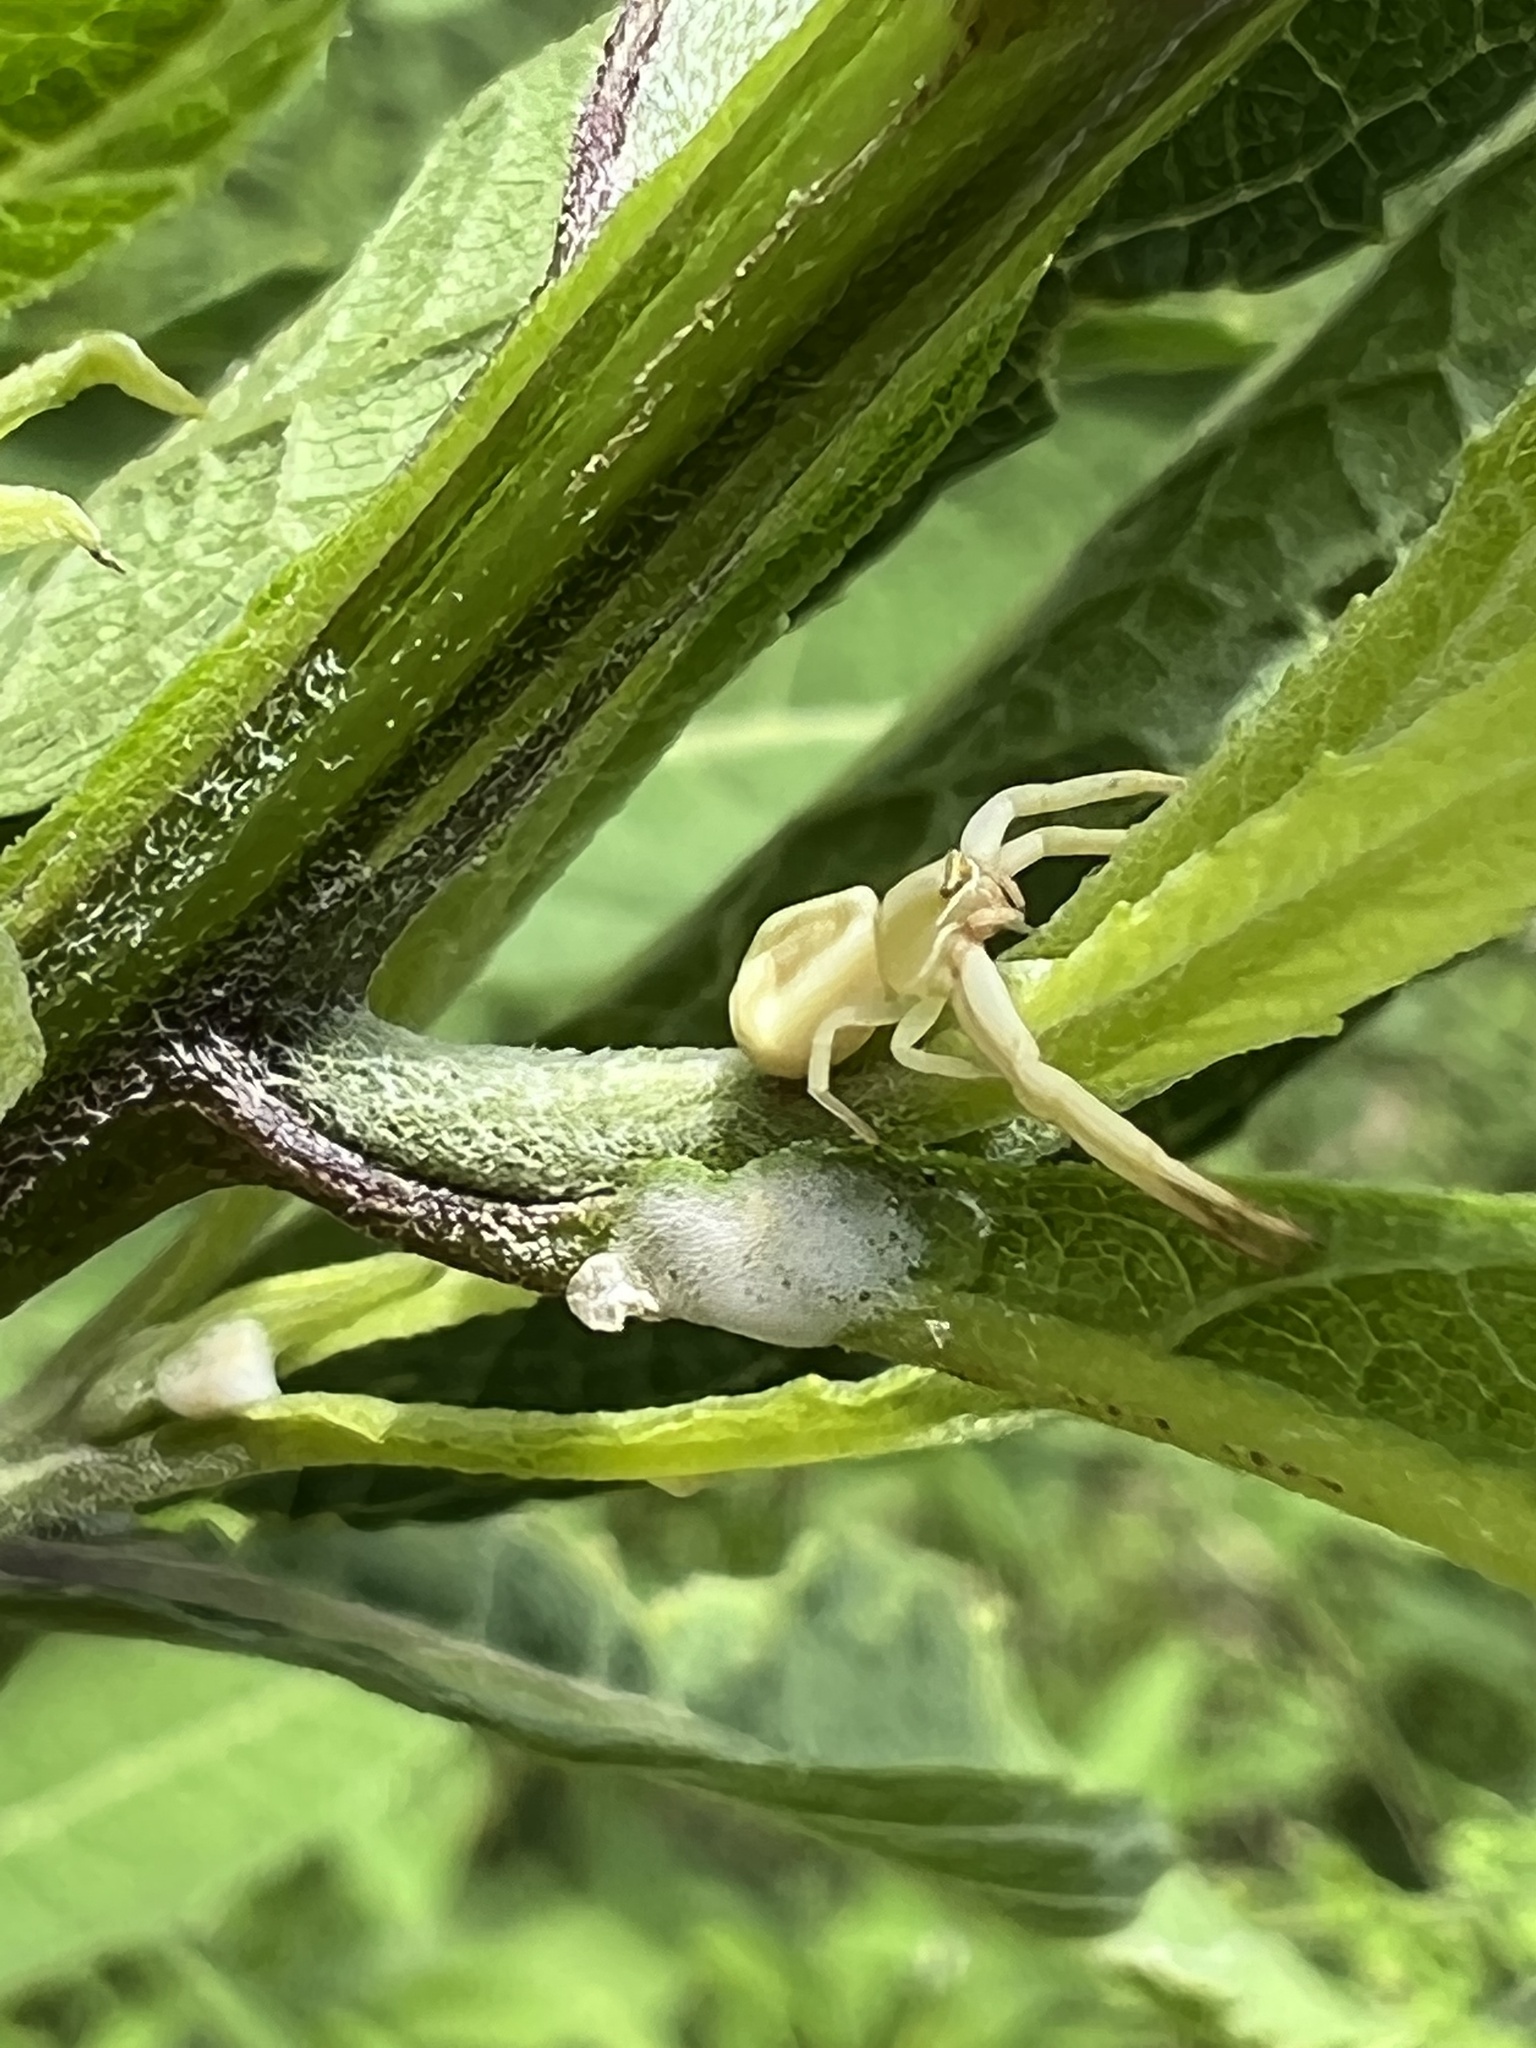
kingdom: Animalia
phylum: Arthropoda
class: Arachnida
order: Araneae
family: Thomisidae
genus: Misumenoides
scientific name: Misumenoides formosipes
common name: White-banded crab spider
